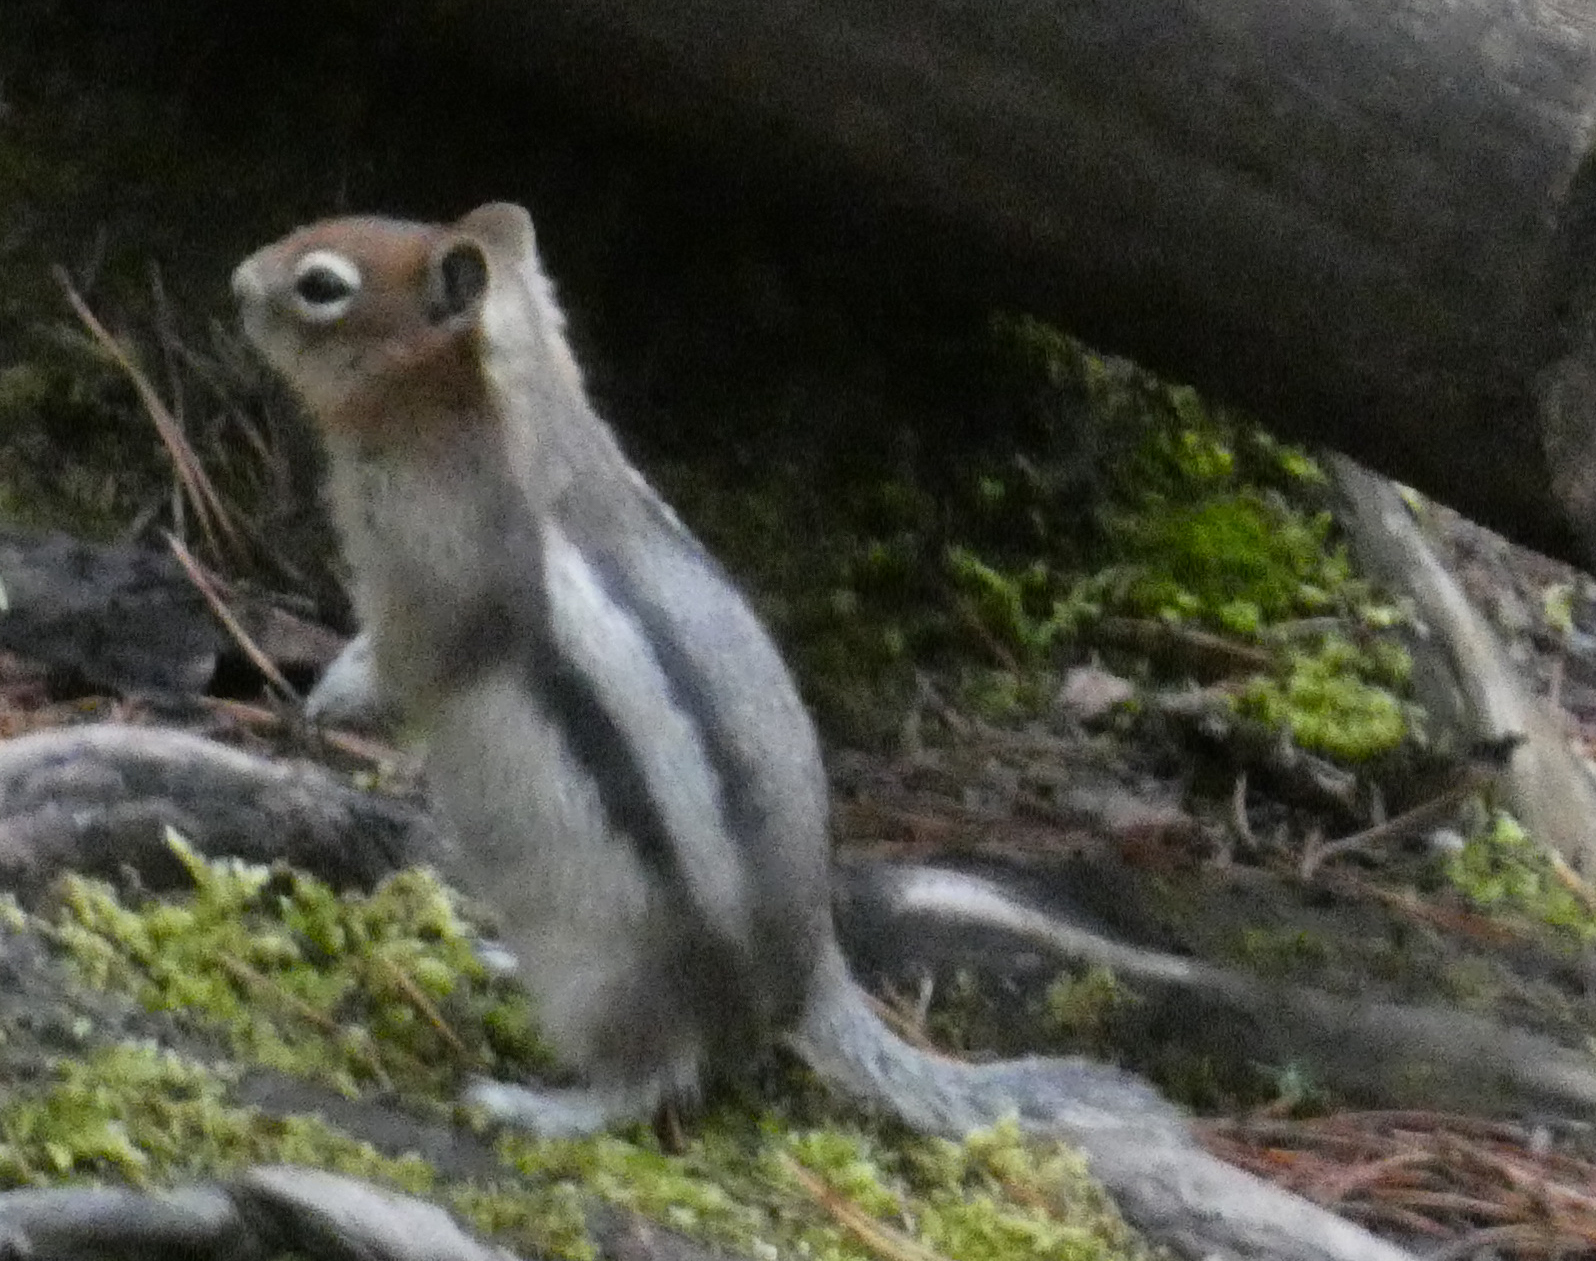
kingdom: Animalia
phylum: Chordata
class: Mammalia
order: Rodentia
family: Sciuridae
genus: Callospermophilus
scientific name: Callospermophilus lateralis
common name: Golden-mantled ground squirrel
